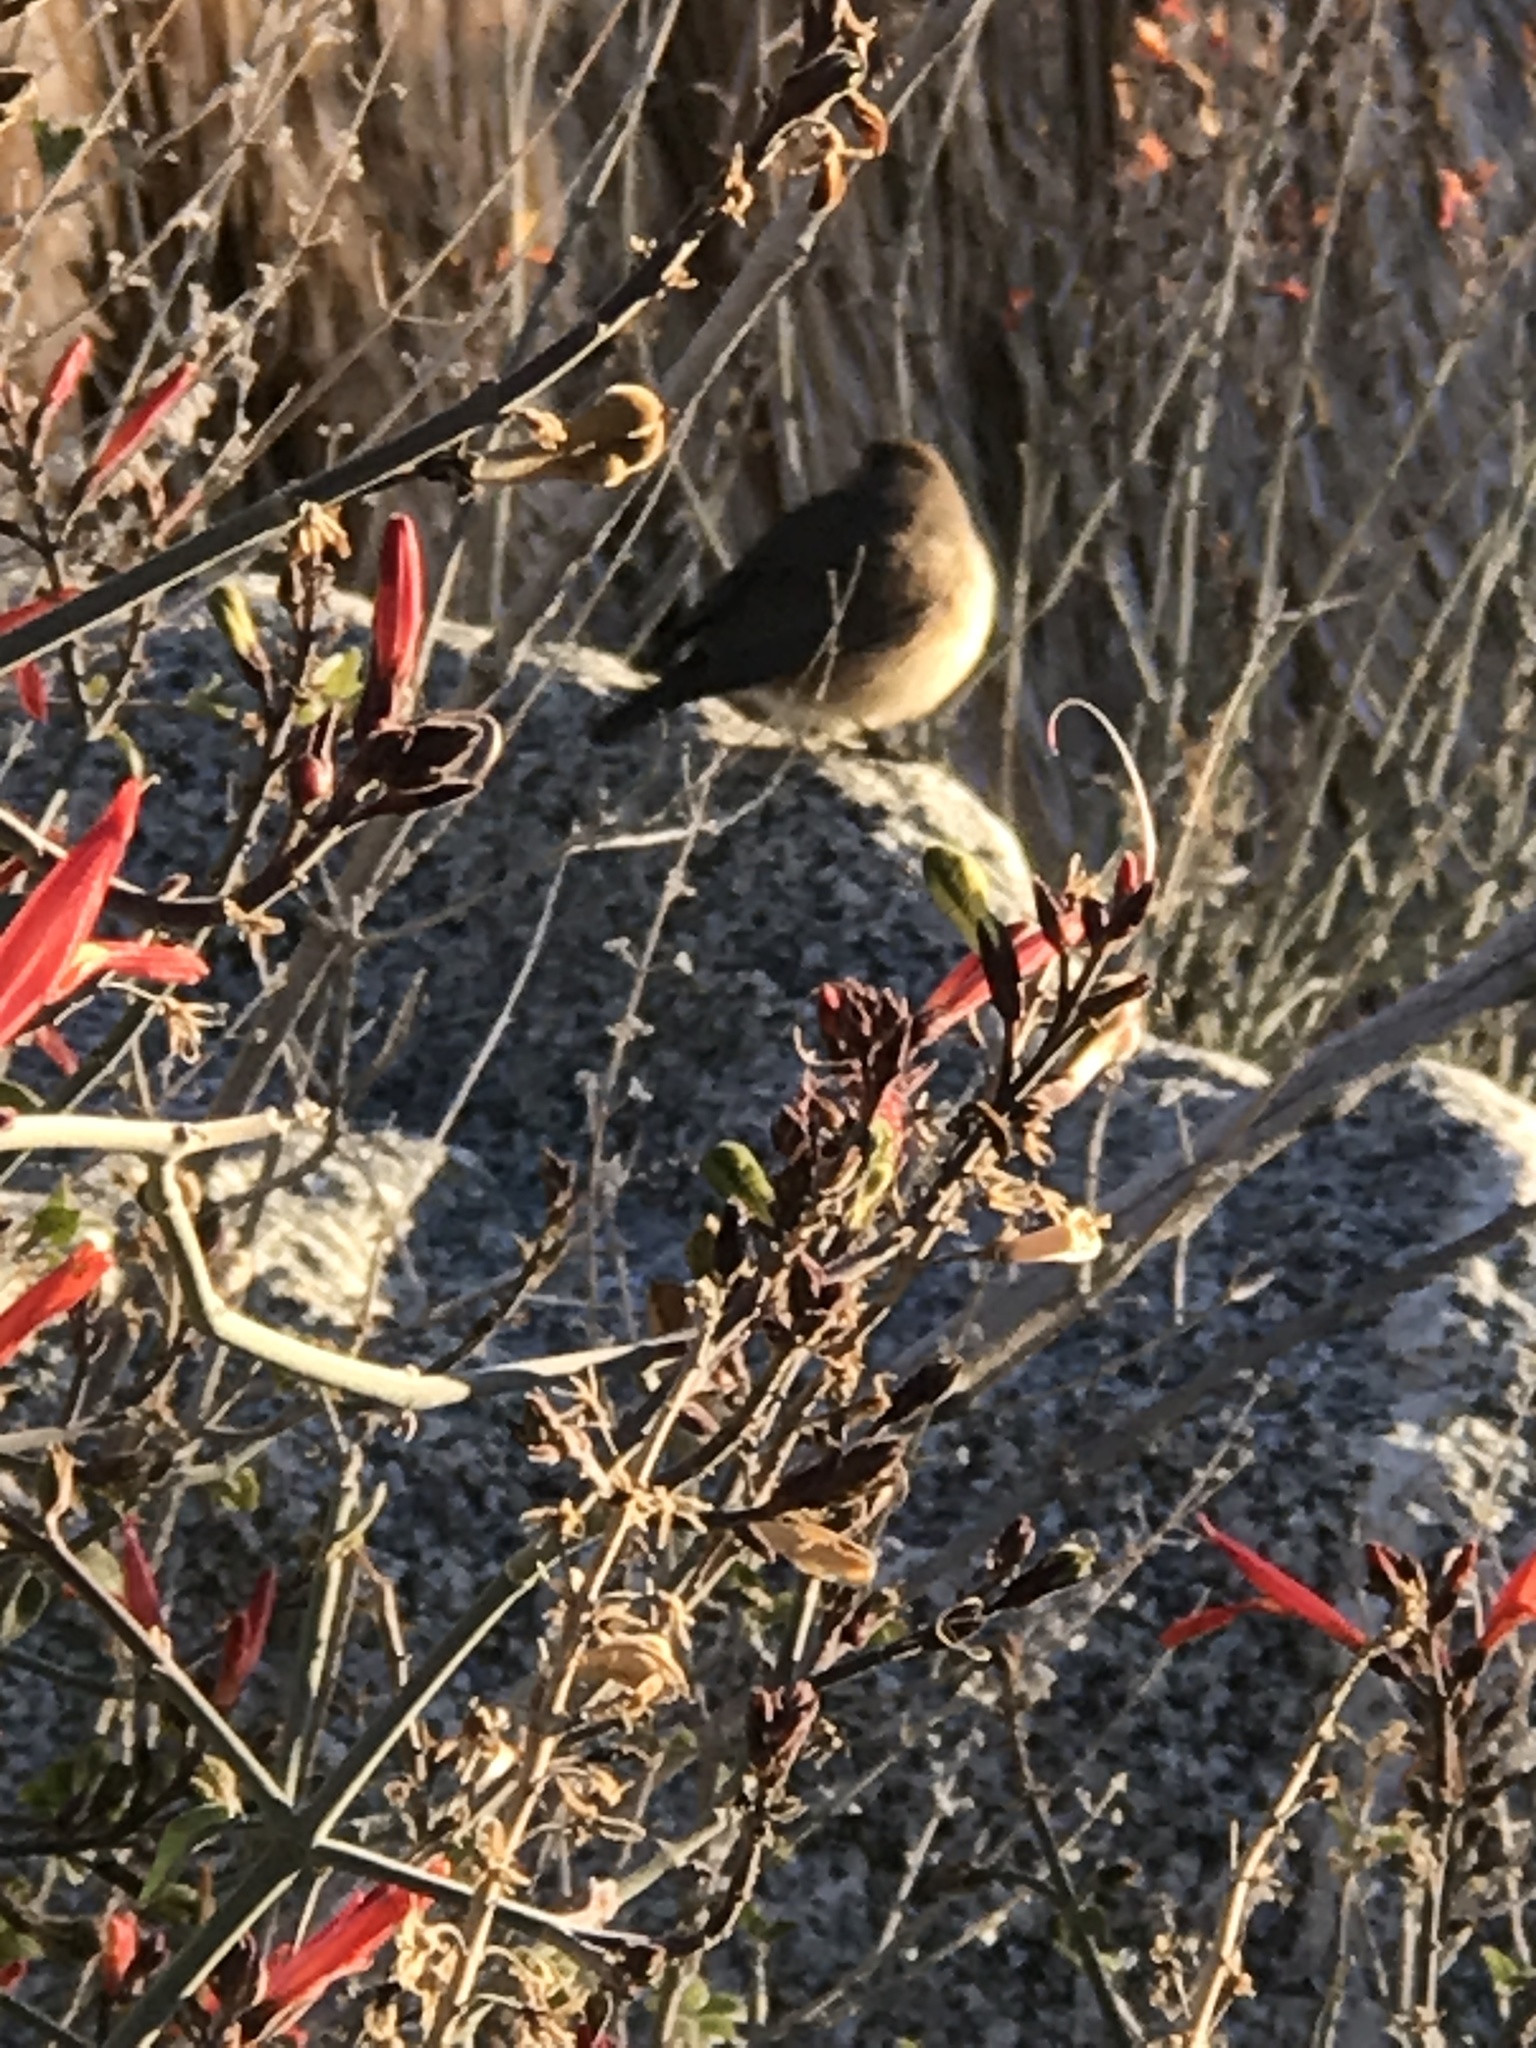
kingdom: Animalia
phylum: Chordata
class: Aves
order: Passeriformes
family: Troglodytidae
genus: Salpinctes
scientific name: Salpinctes obsoletus
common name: Rock wren
